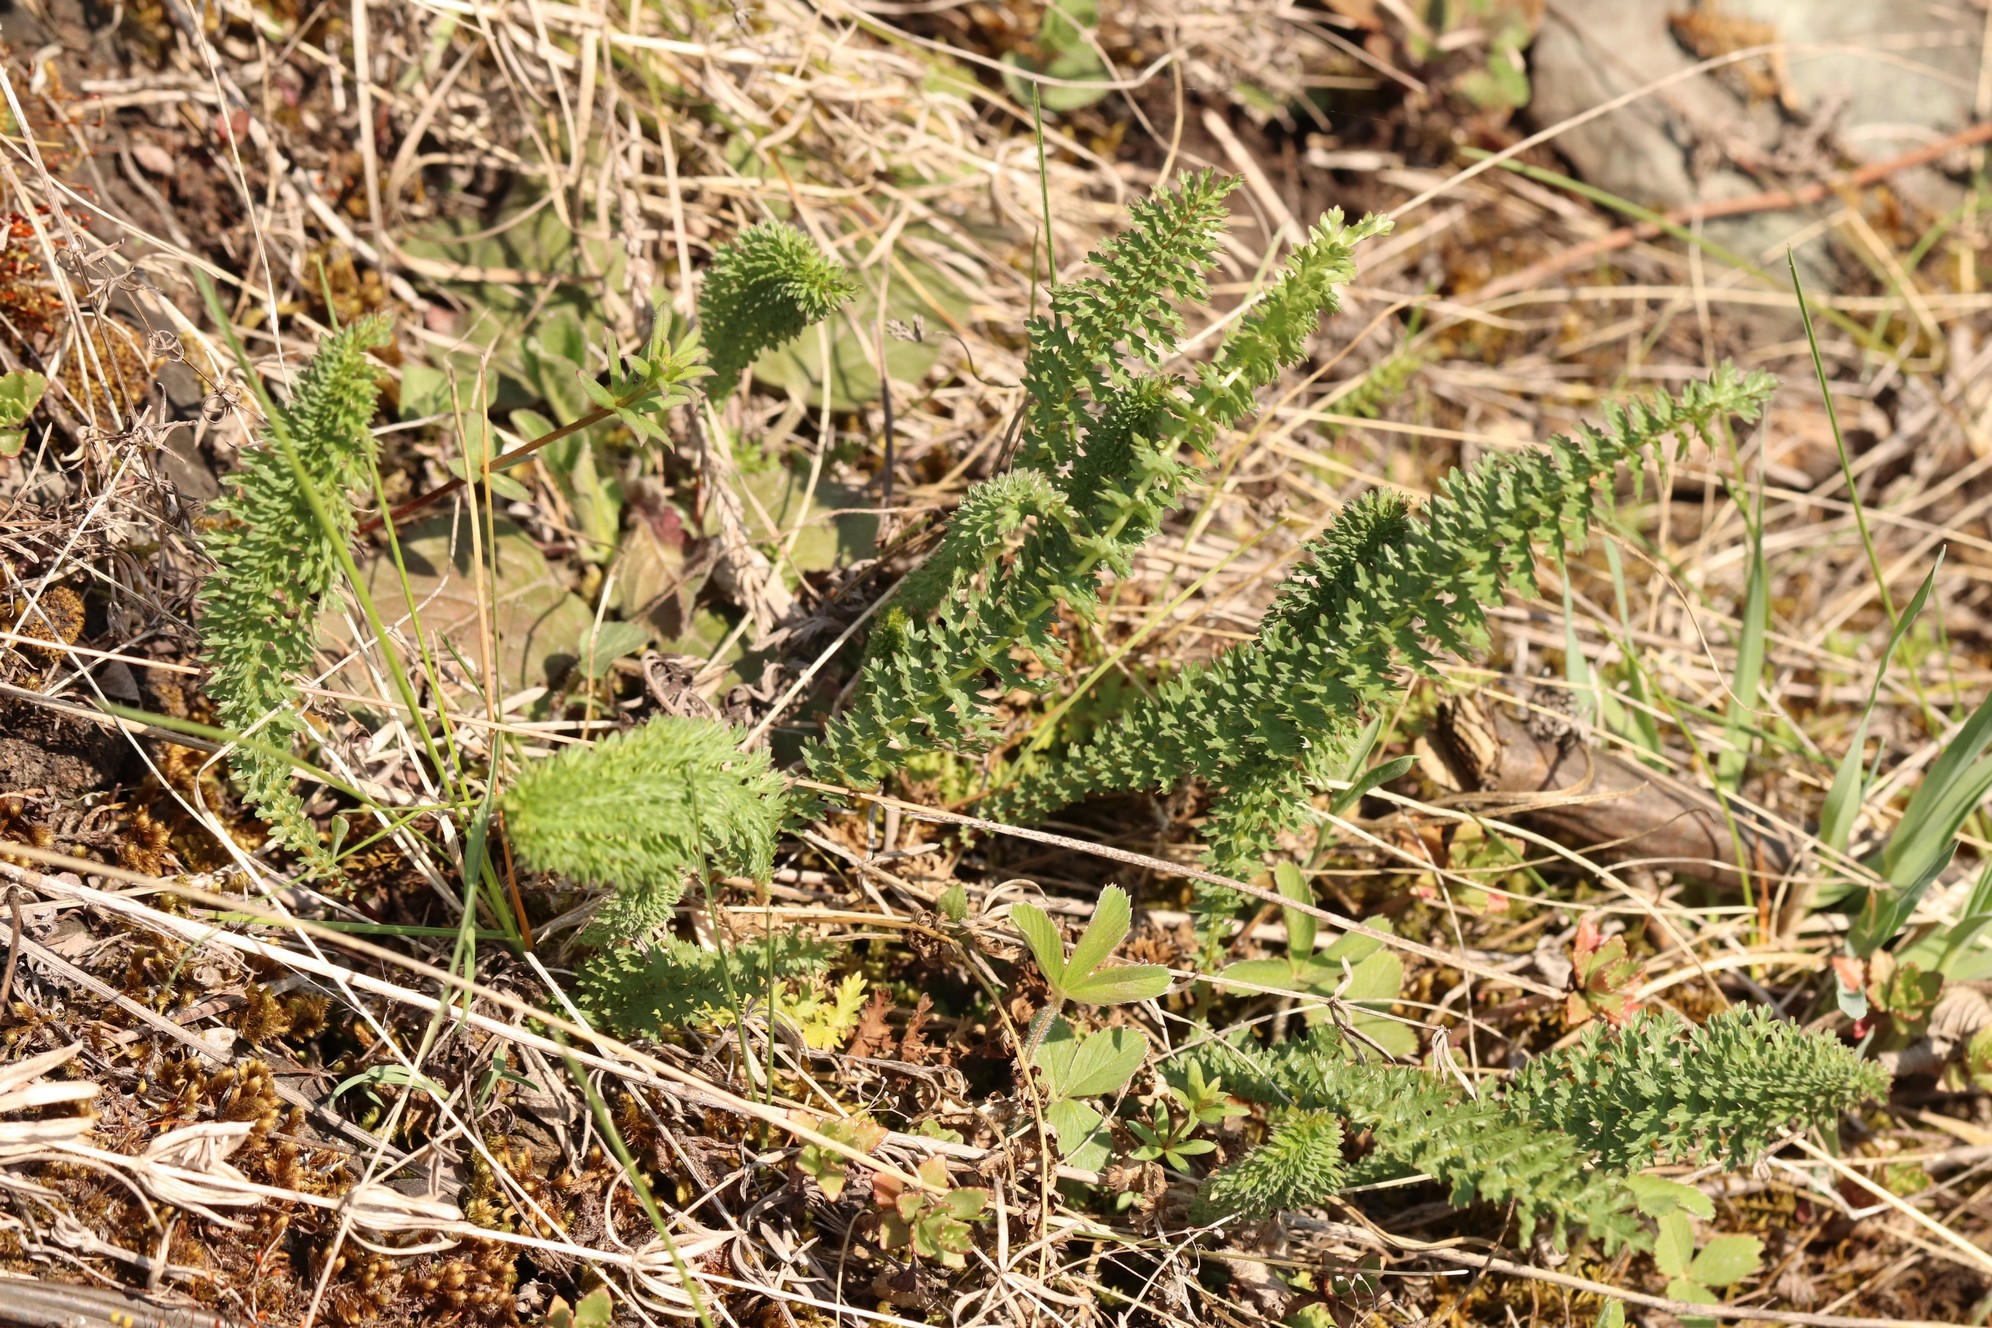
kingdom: Plantae
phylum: Tracheophyta
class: Magnoliopsida
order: Rosales
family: Rosaceae
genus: Filipendula
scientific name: Filipendula vulgaris
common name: Dropwort
